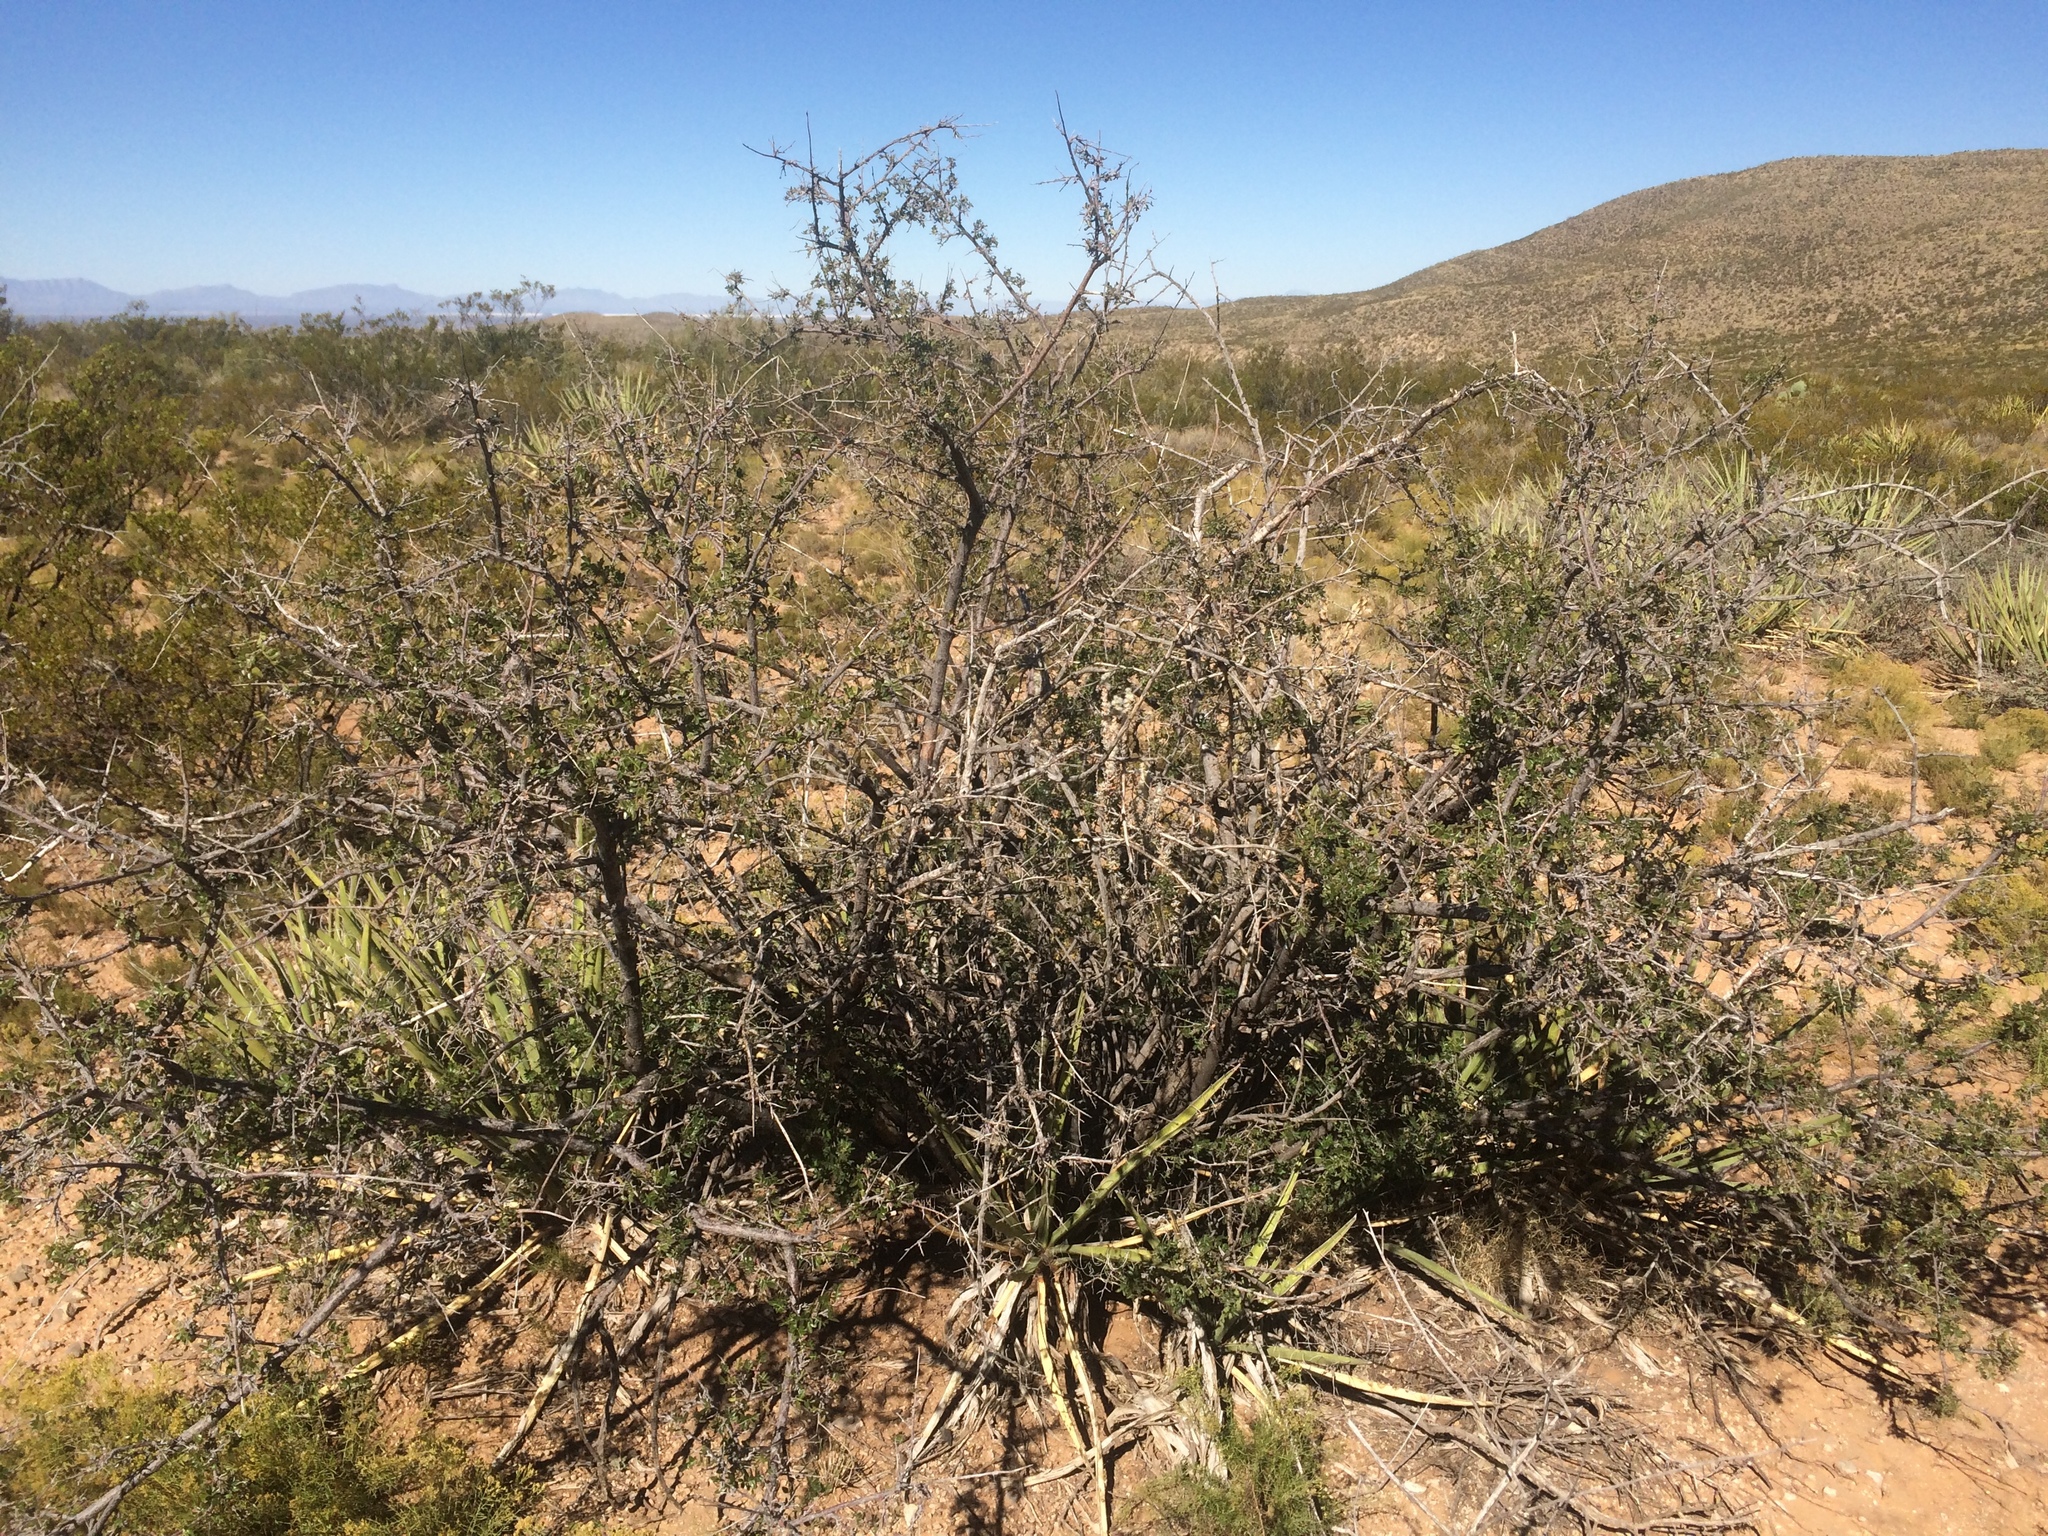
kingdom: Plantae
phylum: Tracheophyta
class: Magnoliopsida
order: Sapindales
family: Anacardiaceae
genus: Rhus
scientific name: Rhus microphylla
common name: Desert sumac
